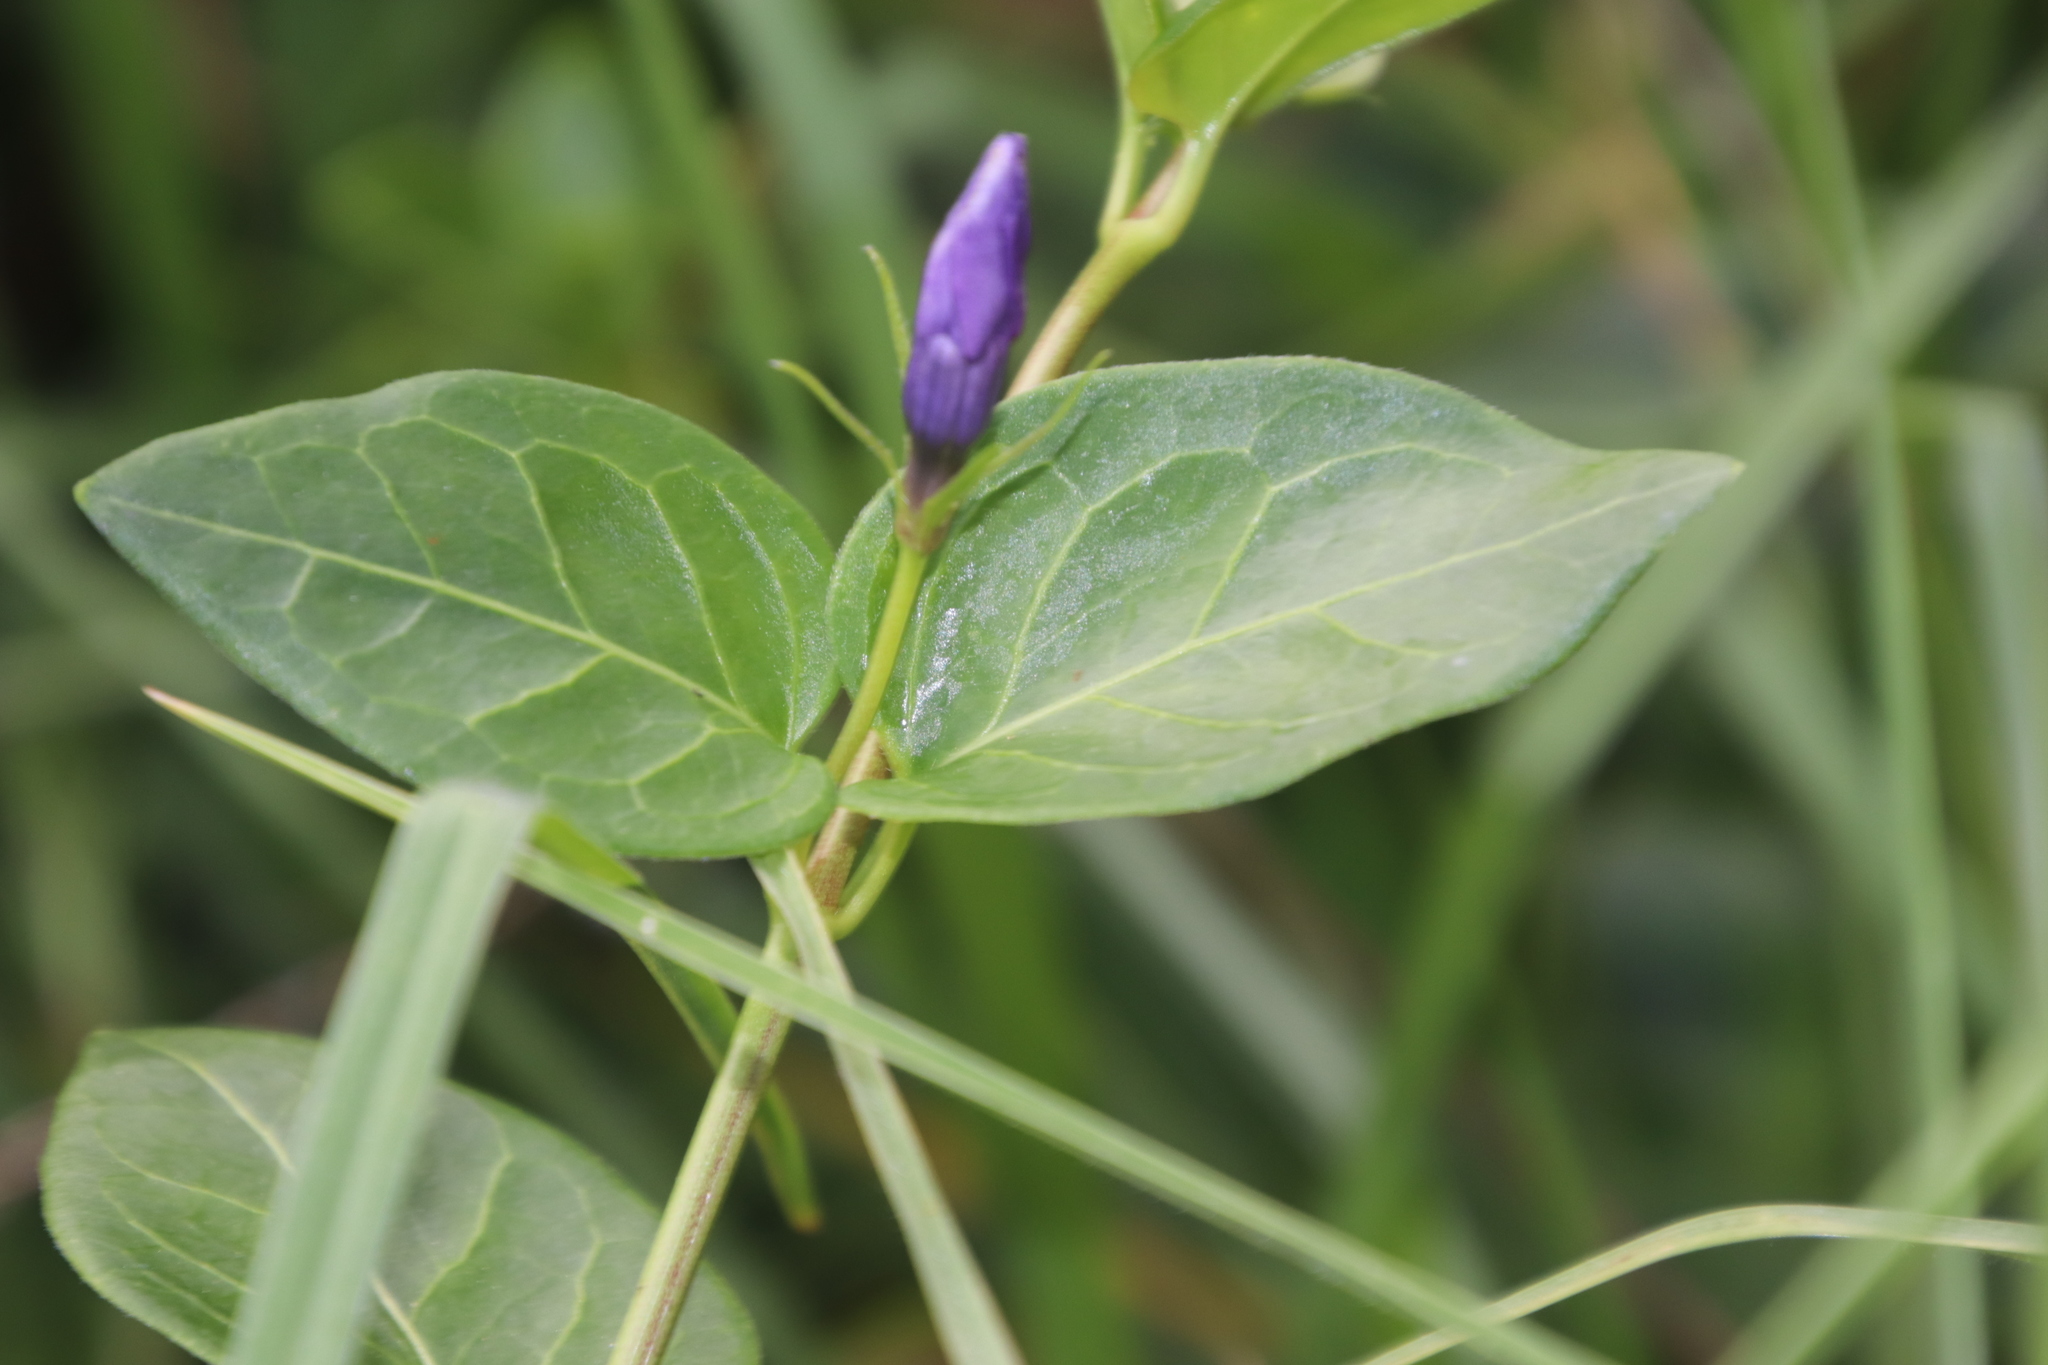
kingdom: Plantae
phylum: Tracheophyta
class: Magnoliopsida
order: Gentianales
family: Apocynaceae
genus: Vinca
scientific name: Vinca major
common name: Greater periwinkle
